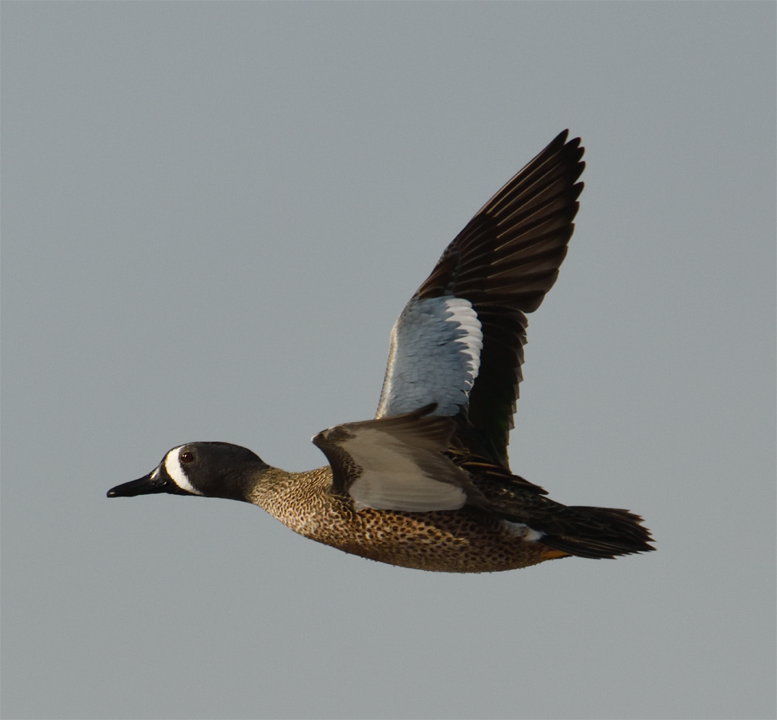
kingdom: Animalia
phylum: Chordata
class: Aves
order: Anseriformes
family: Anatidae
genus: Spatula
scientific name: Spatula discors
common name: Blue-winged teal
